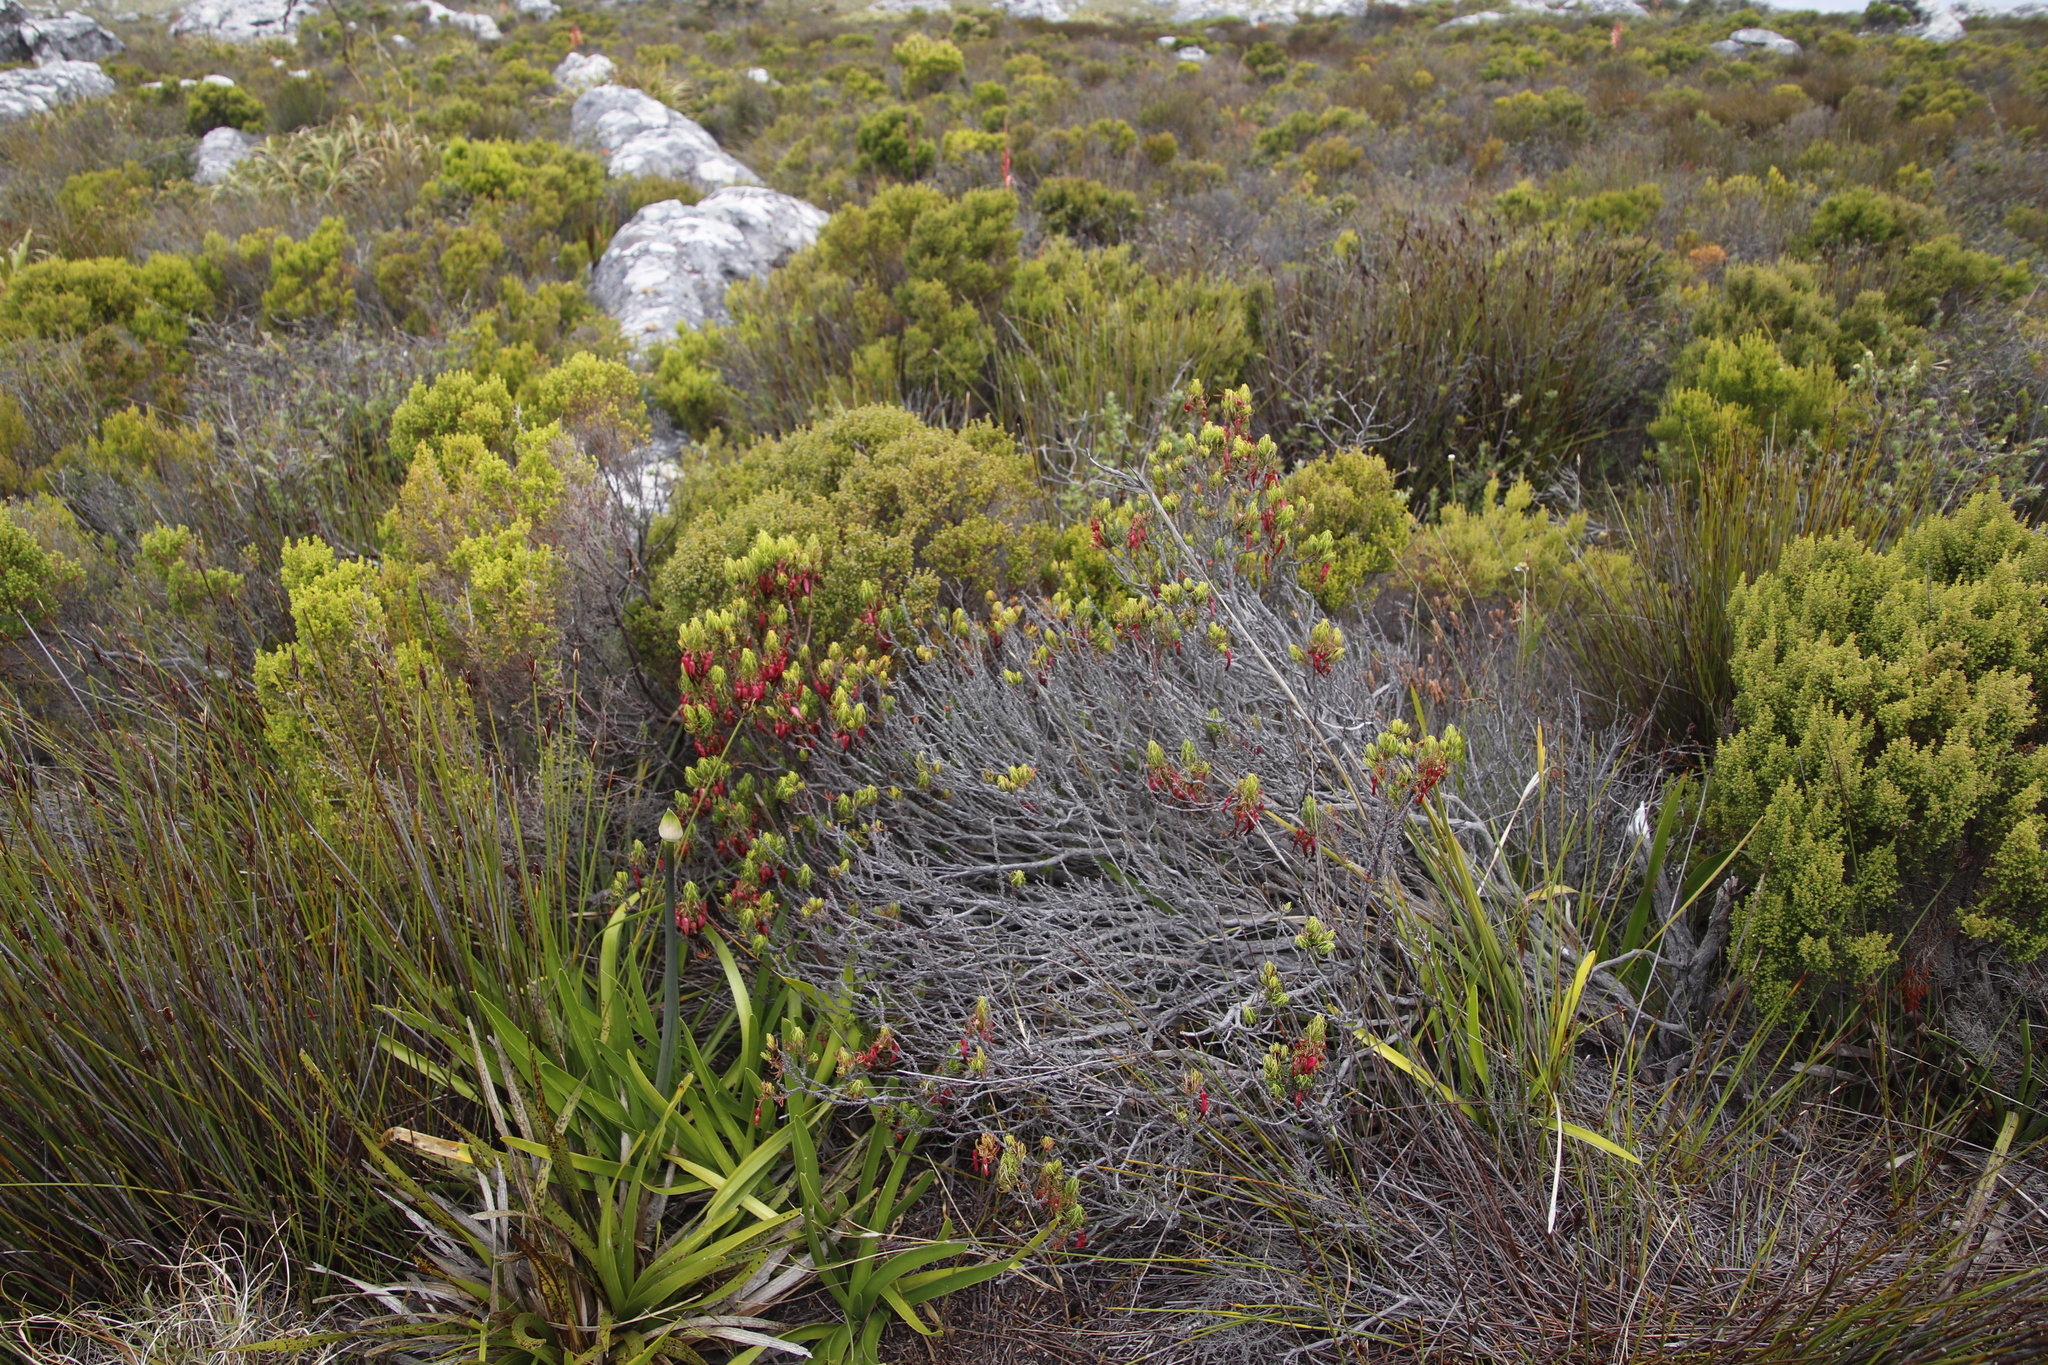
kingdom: Plantae
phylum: Tracheophyta
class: Magnoliopsida
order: Ericales
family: Ericaceae
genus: Erica
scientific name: Erica plukenetii
